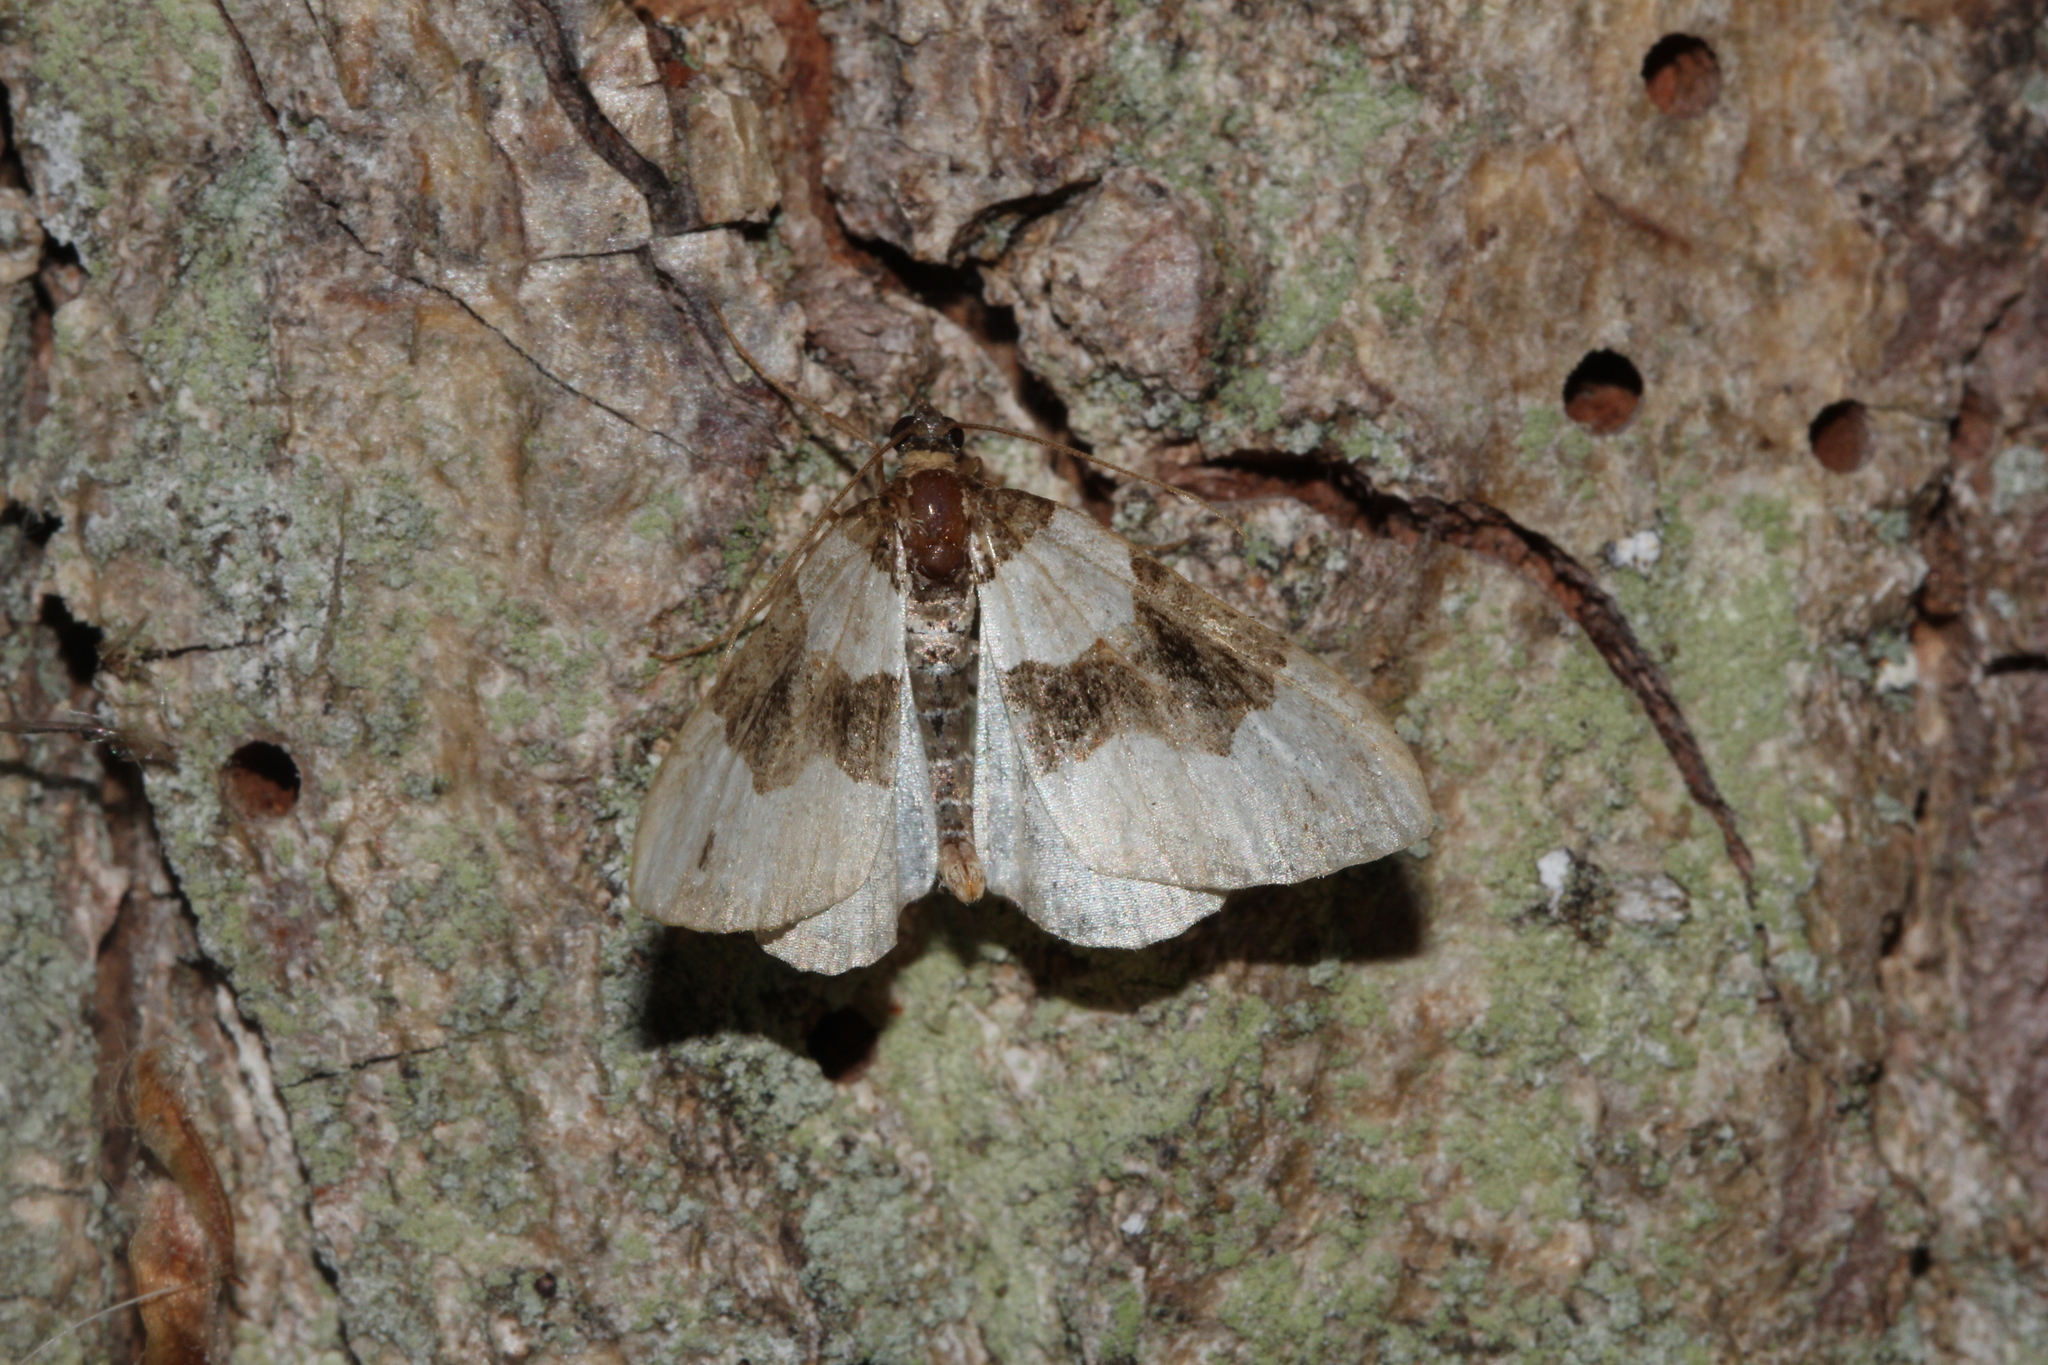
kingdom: Animalia
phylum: Arthropoda
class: Insecta
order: Lepidoptera
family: Geometridae
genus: Cosmorhoe
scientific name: Cosmorhoe ocellata
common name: Purple bar
